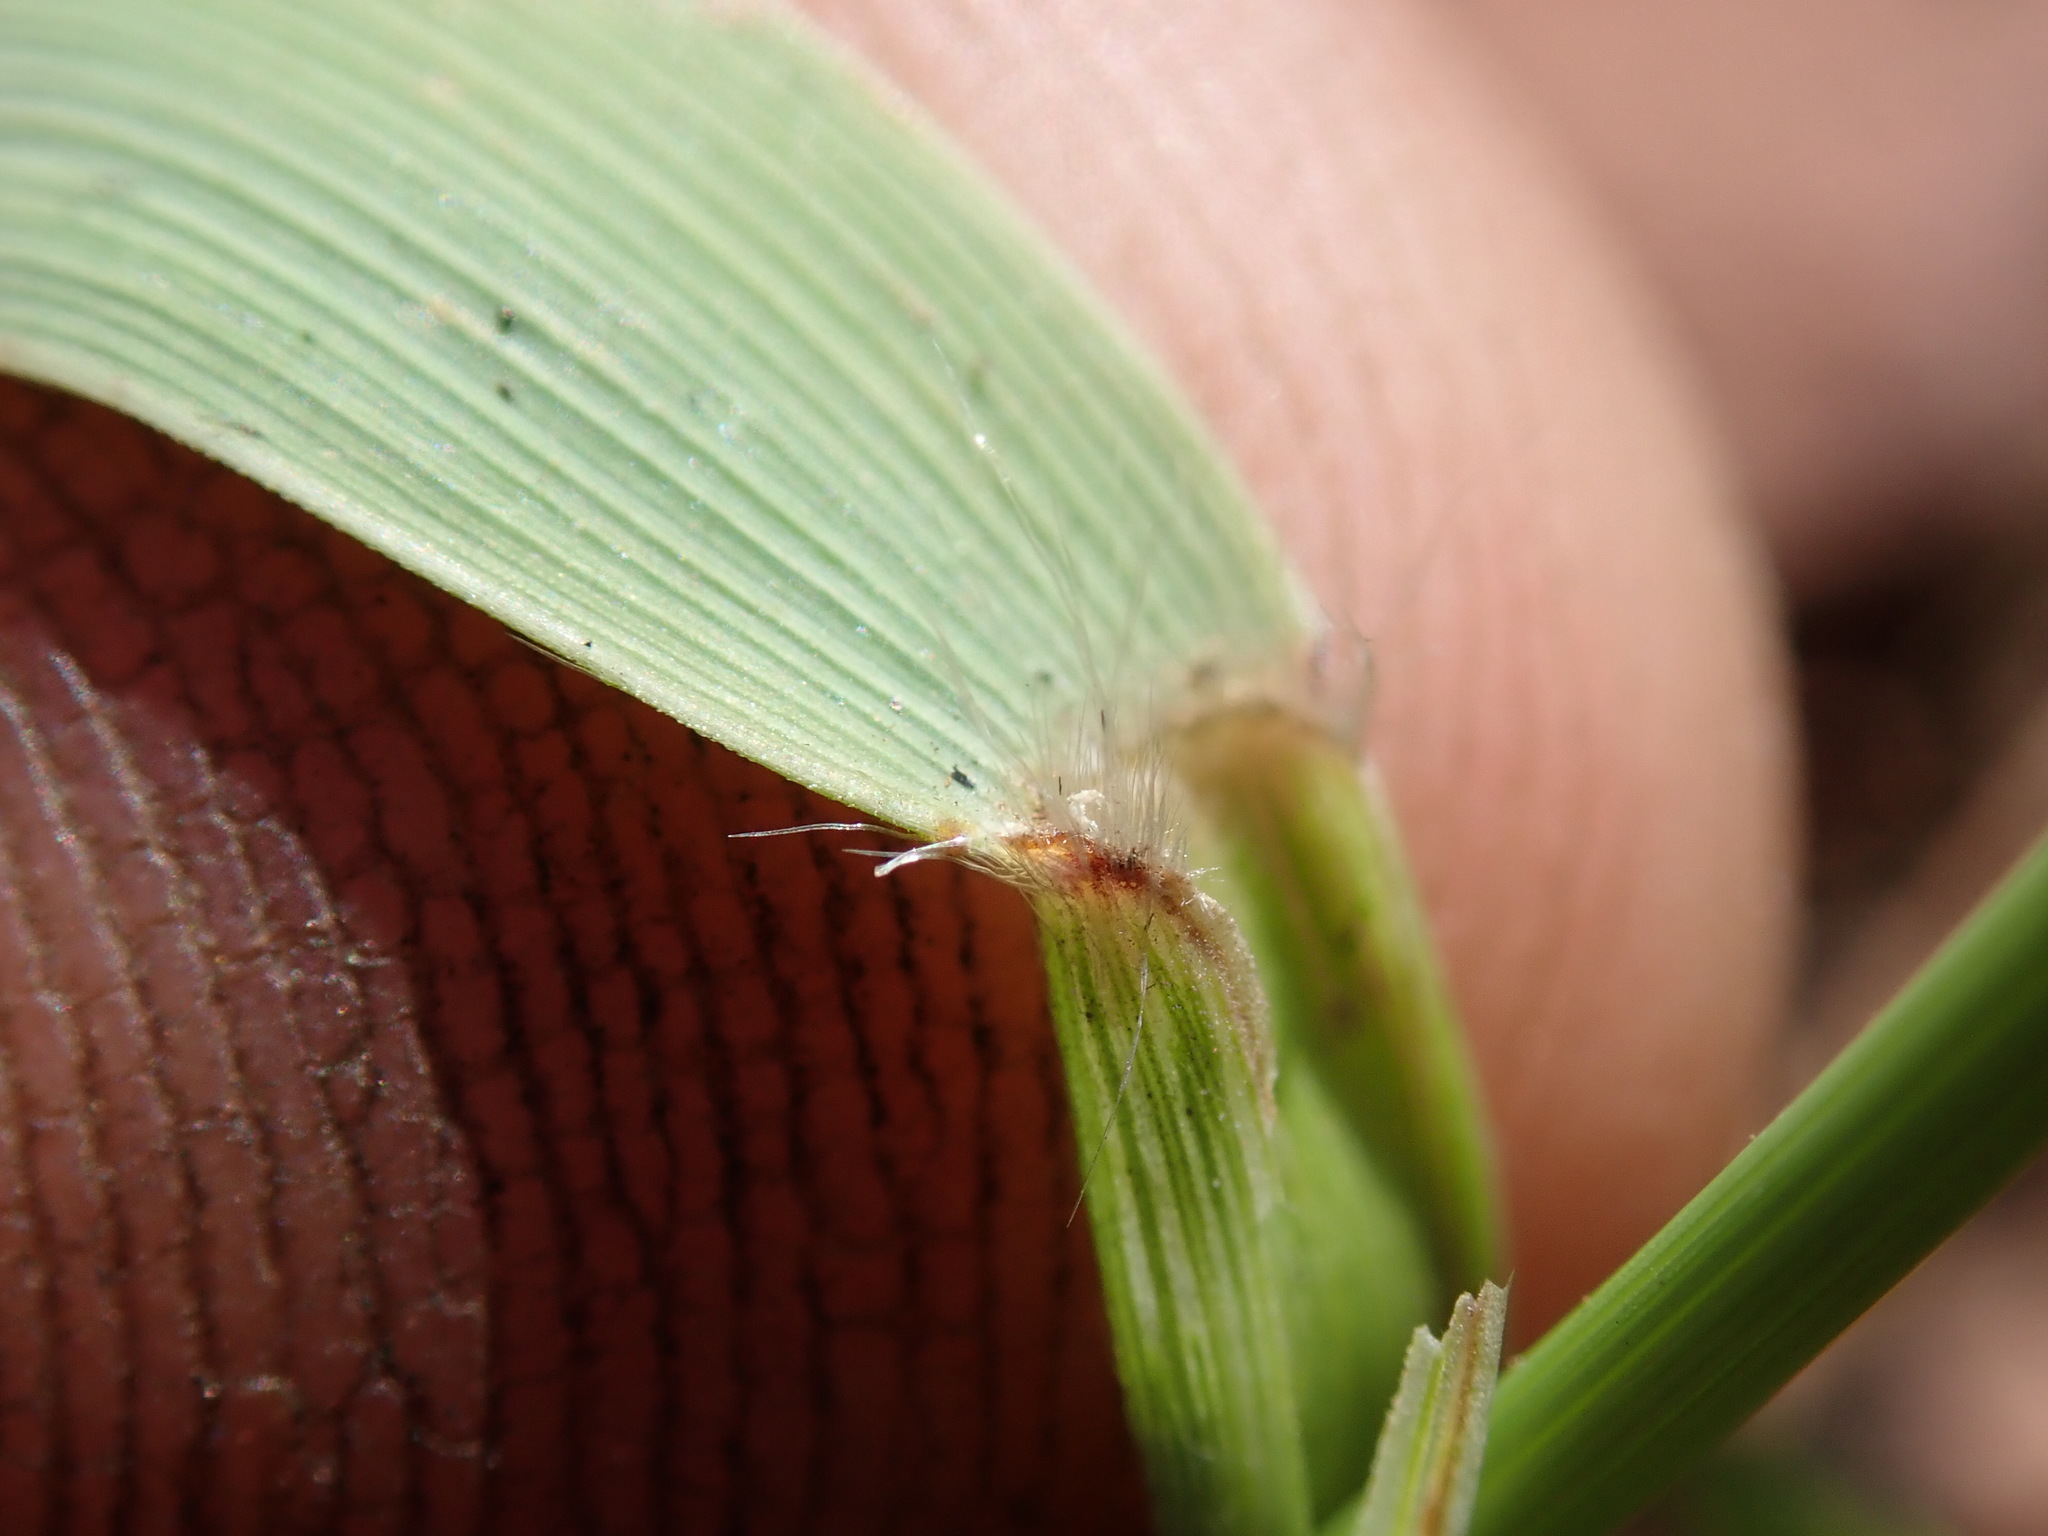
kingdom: Plantae
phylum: Tracheophyta
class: Liliopsida
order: Poales
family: Poaceae
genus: Tristachya
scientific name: Tristachya leucothrix
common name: Trident grass
